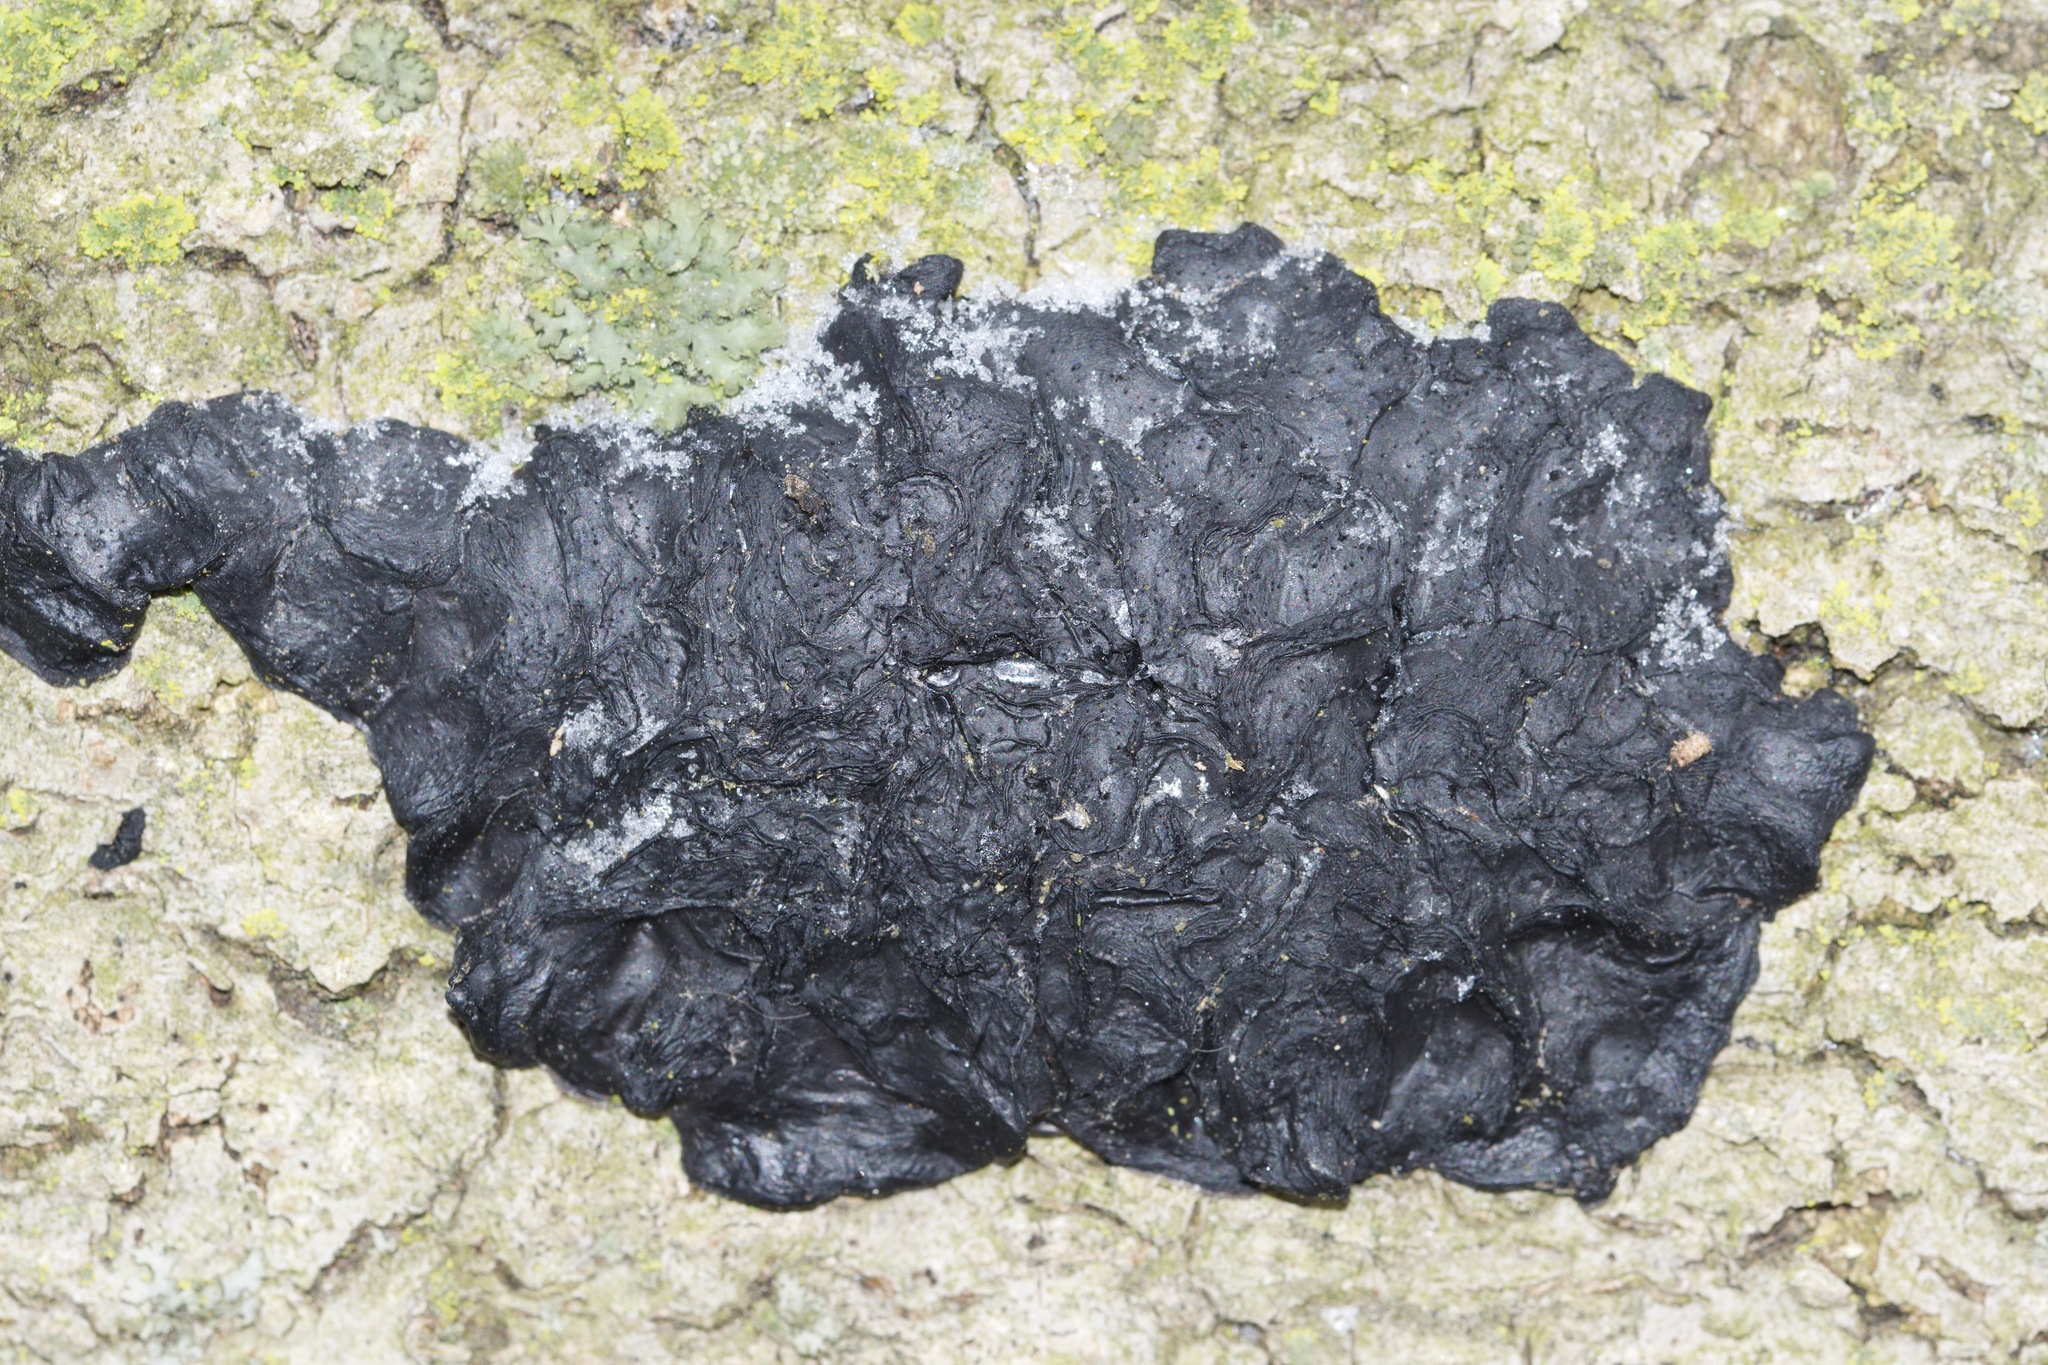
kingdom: Fungi
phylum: Basidiomycota
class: Agaricomycetes
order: Auriculariales
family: Auriculariaceae
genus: Exidia
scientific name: Exidia glandulosa
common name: Witches' butter
